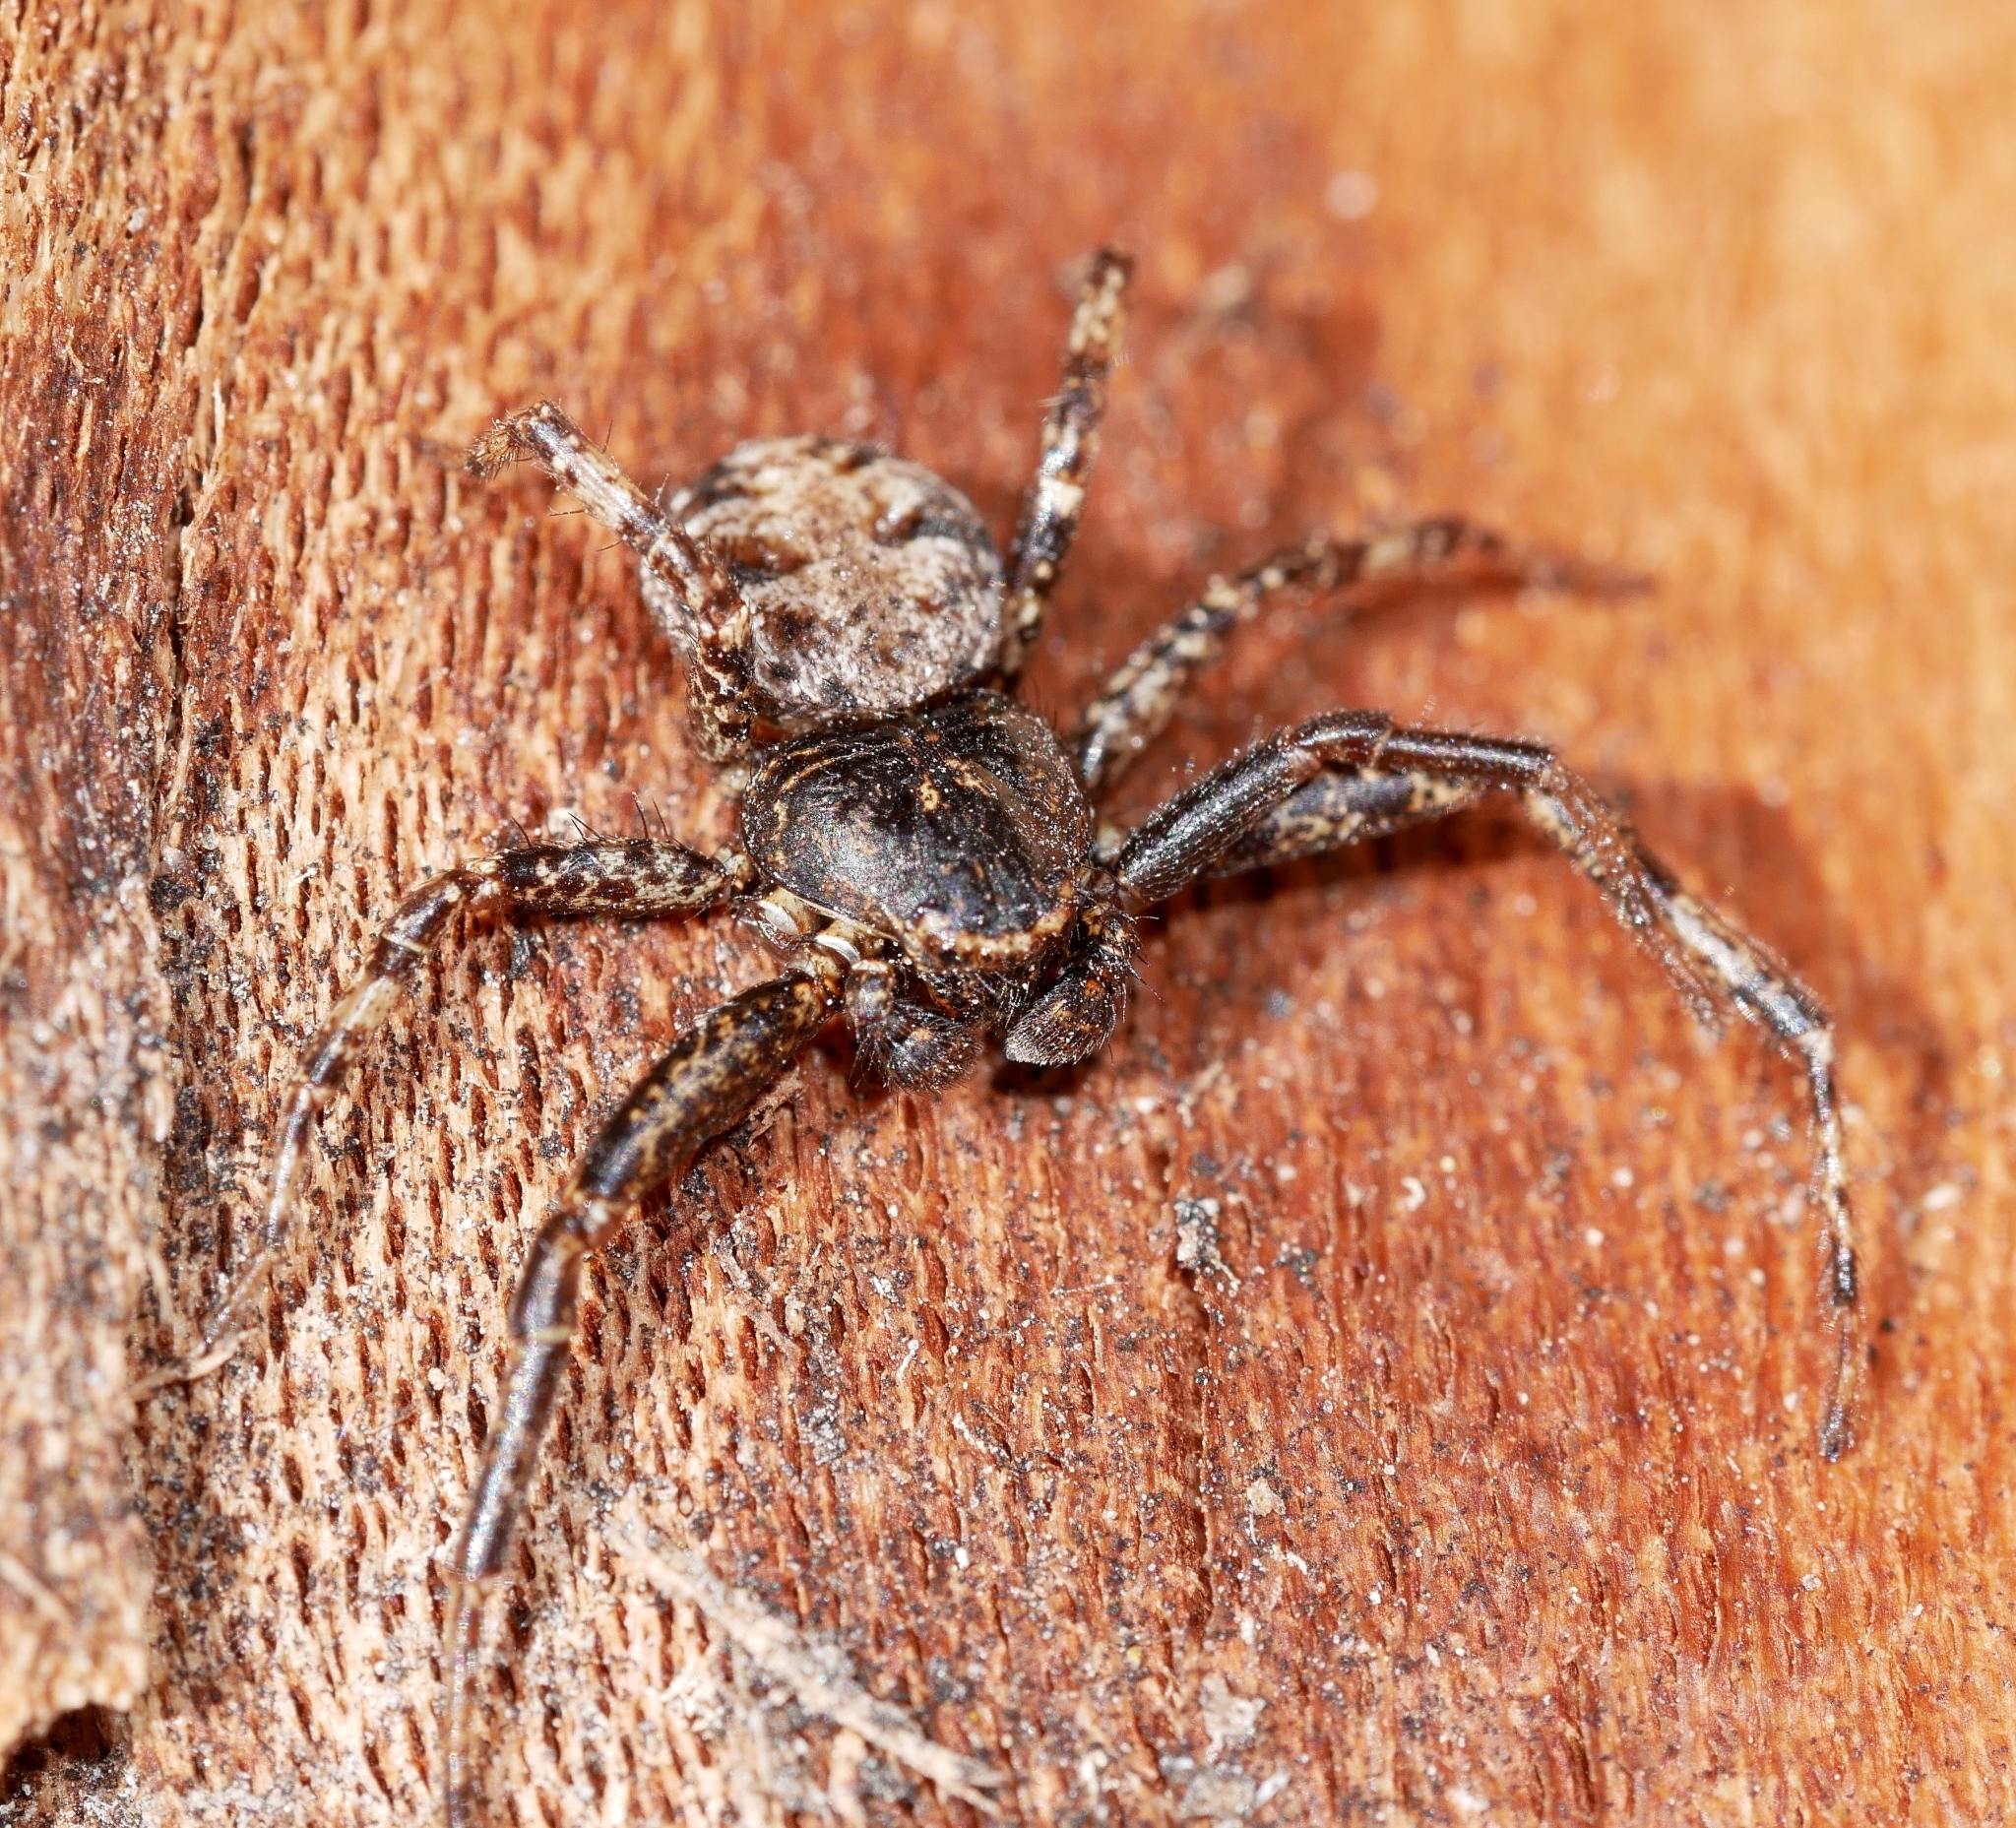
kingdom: Animalia
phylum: Arthropoda
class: Arachnida
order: Araneae
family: Thomisidae
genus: Bassaniana
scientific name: Bassaniana utahensis
